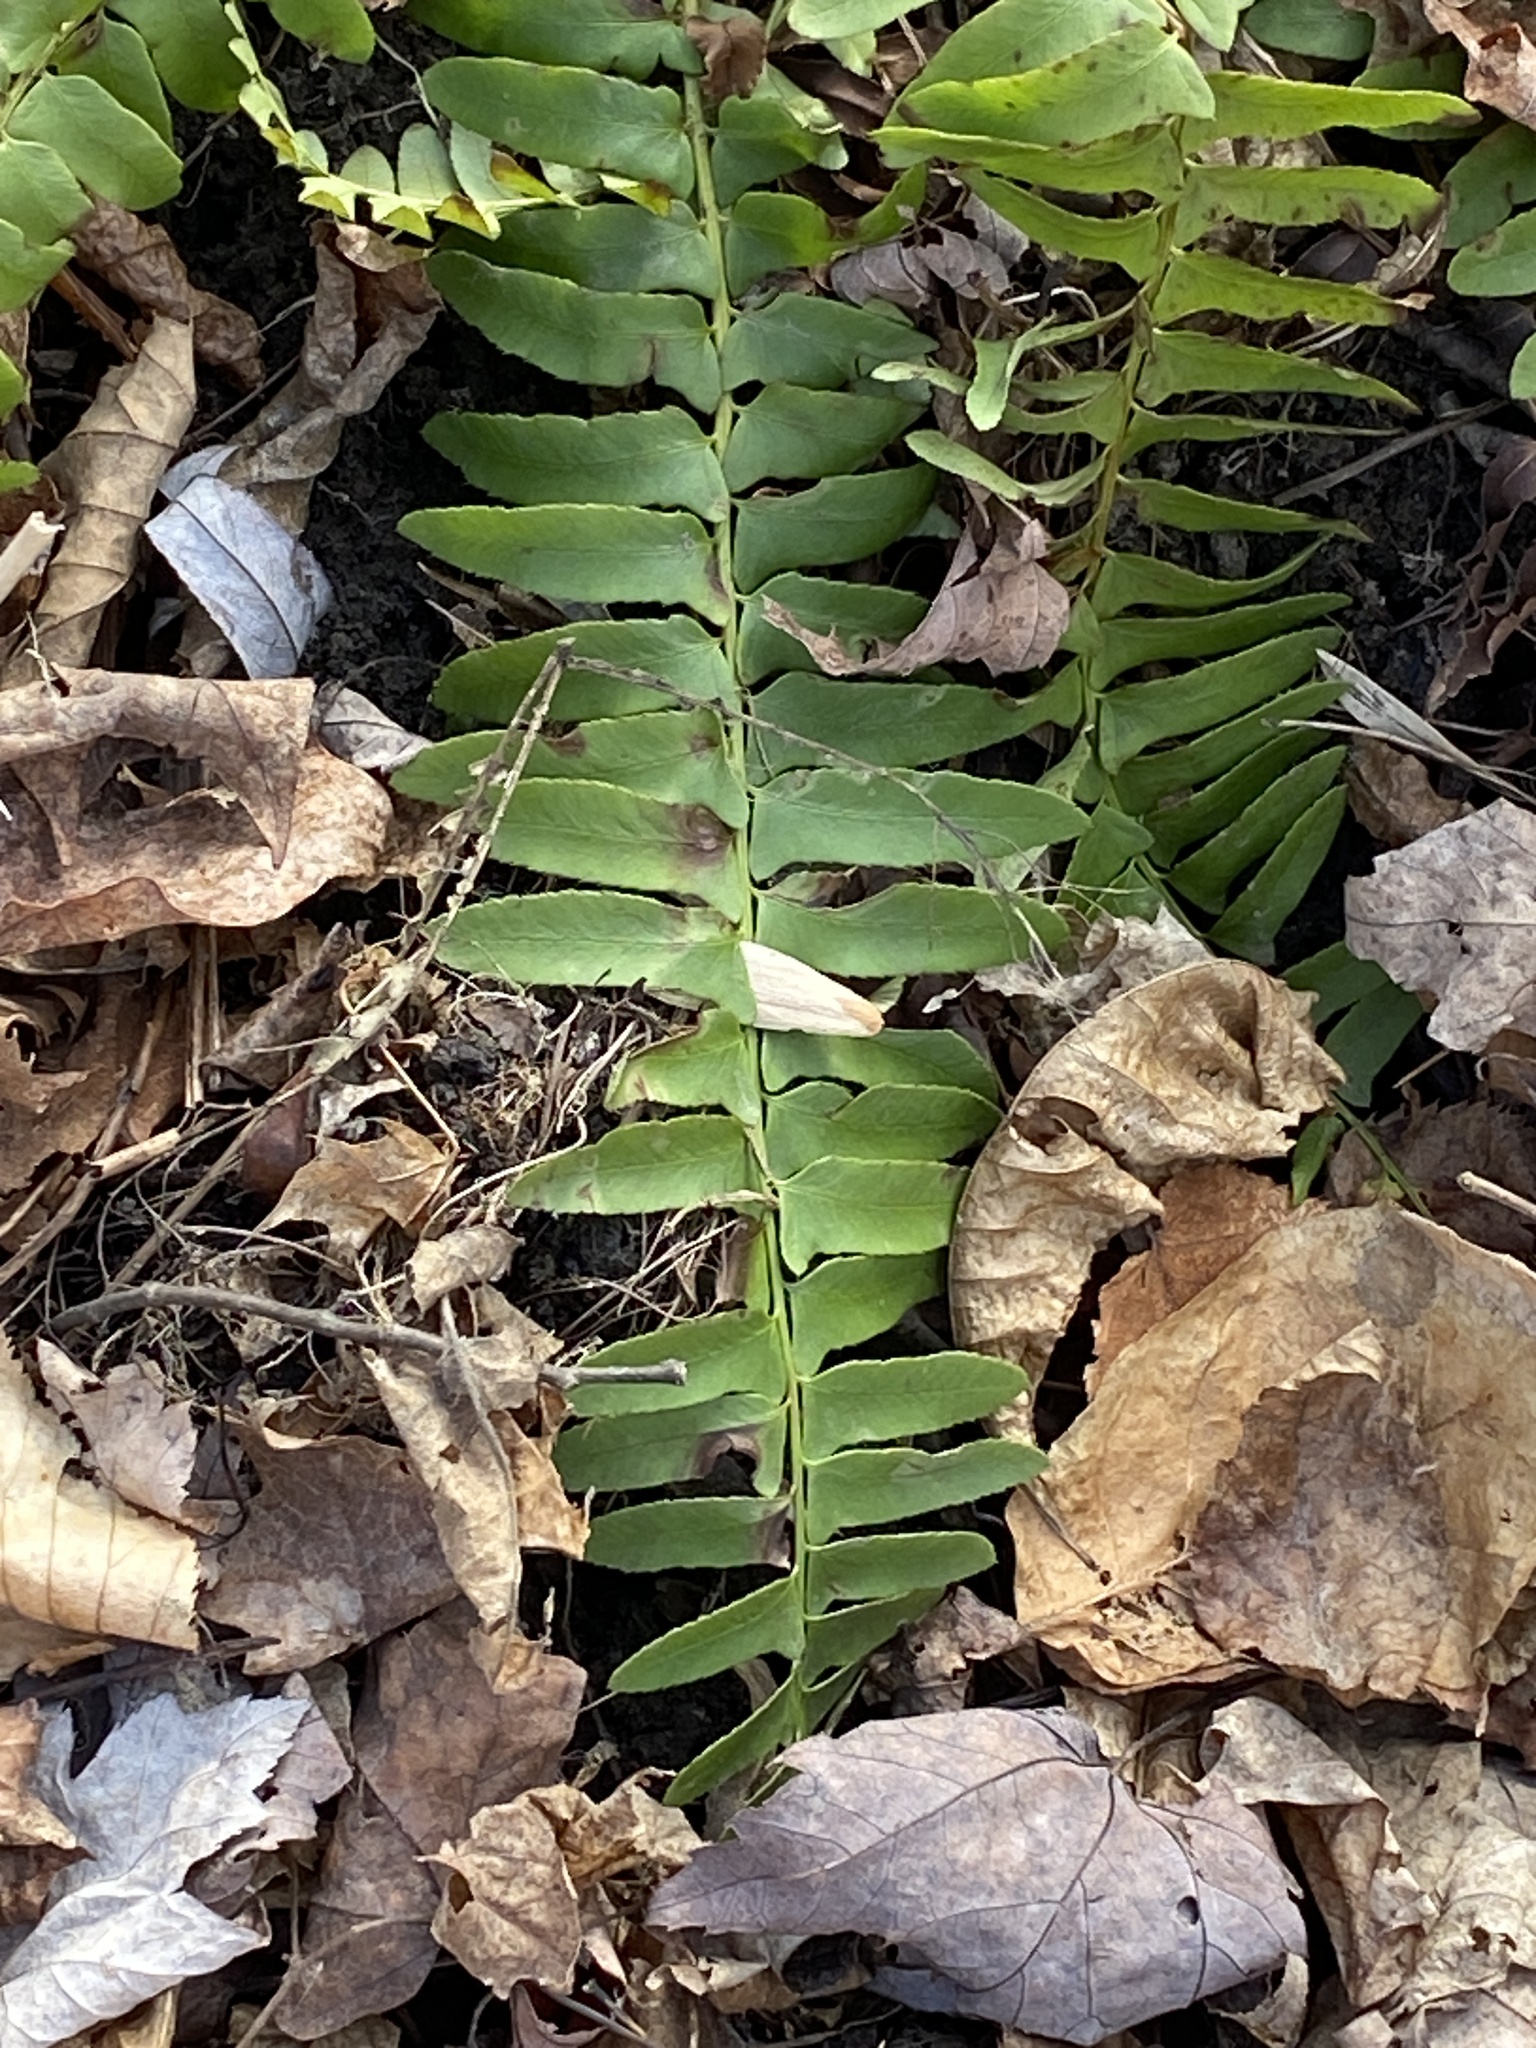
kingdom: Plantae
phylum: Tracheophyta
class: Polypodiopsida
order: Polypodiales
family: Dryopteridaceae
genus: Polystichum
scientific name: Polystichum acrostichoides
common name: Christmas fern
